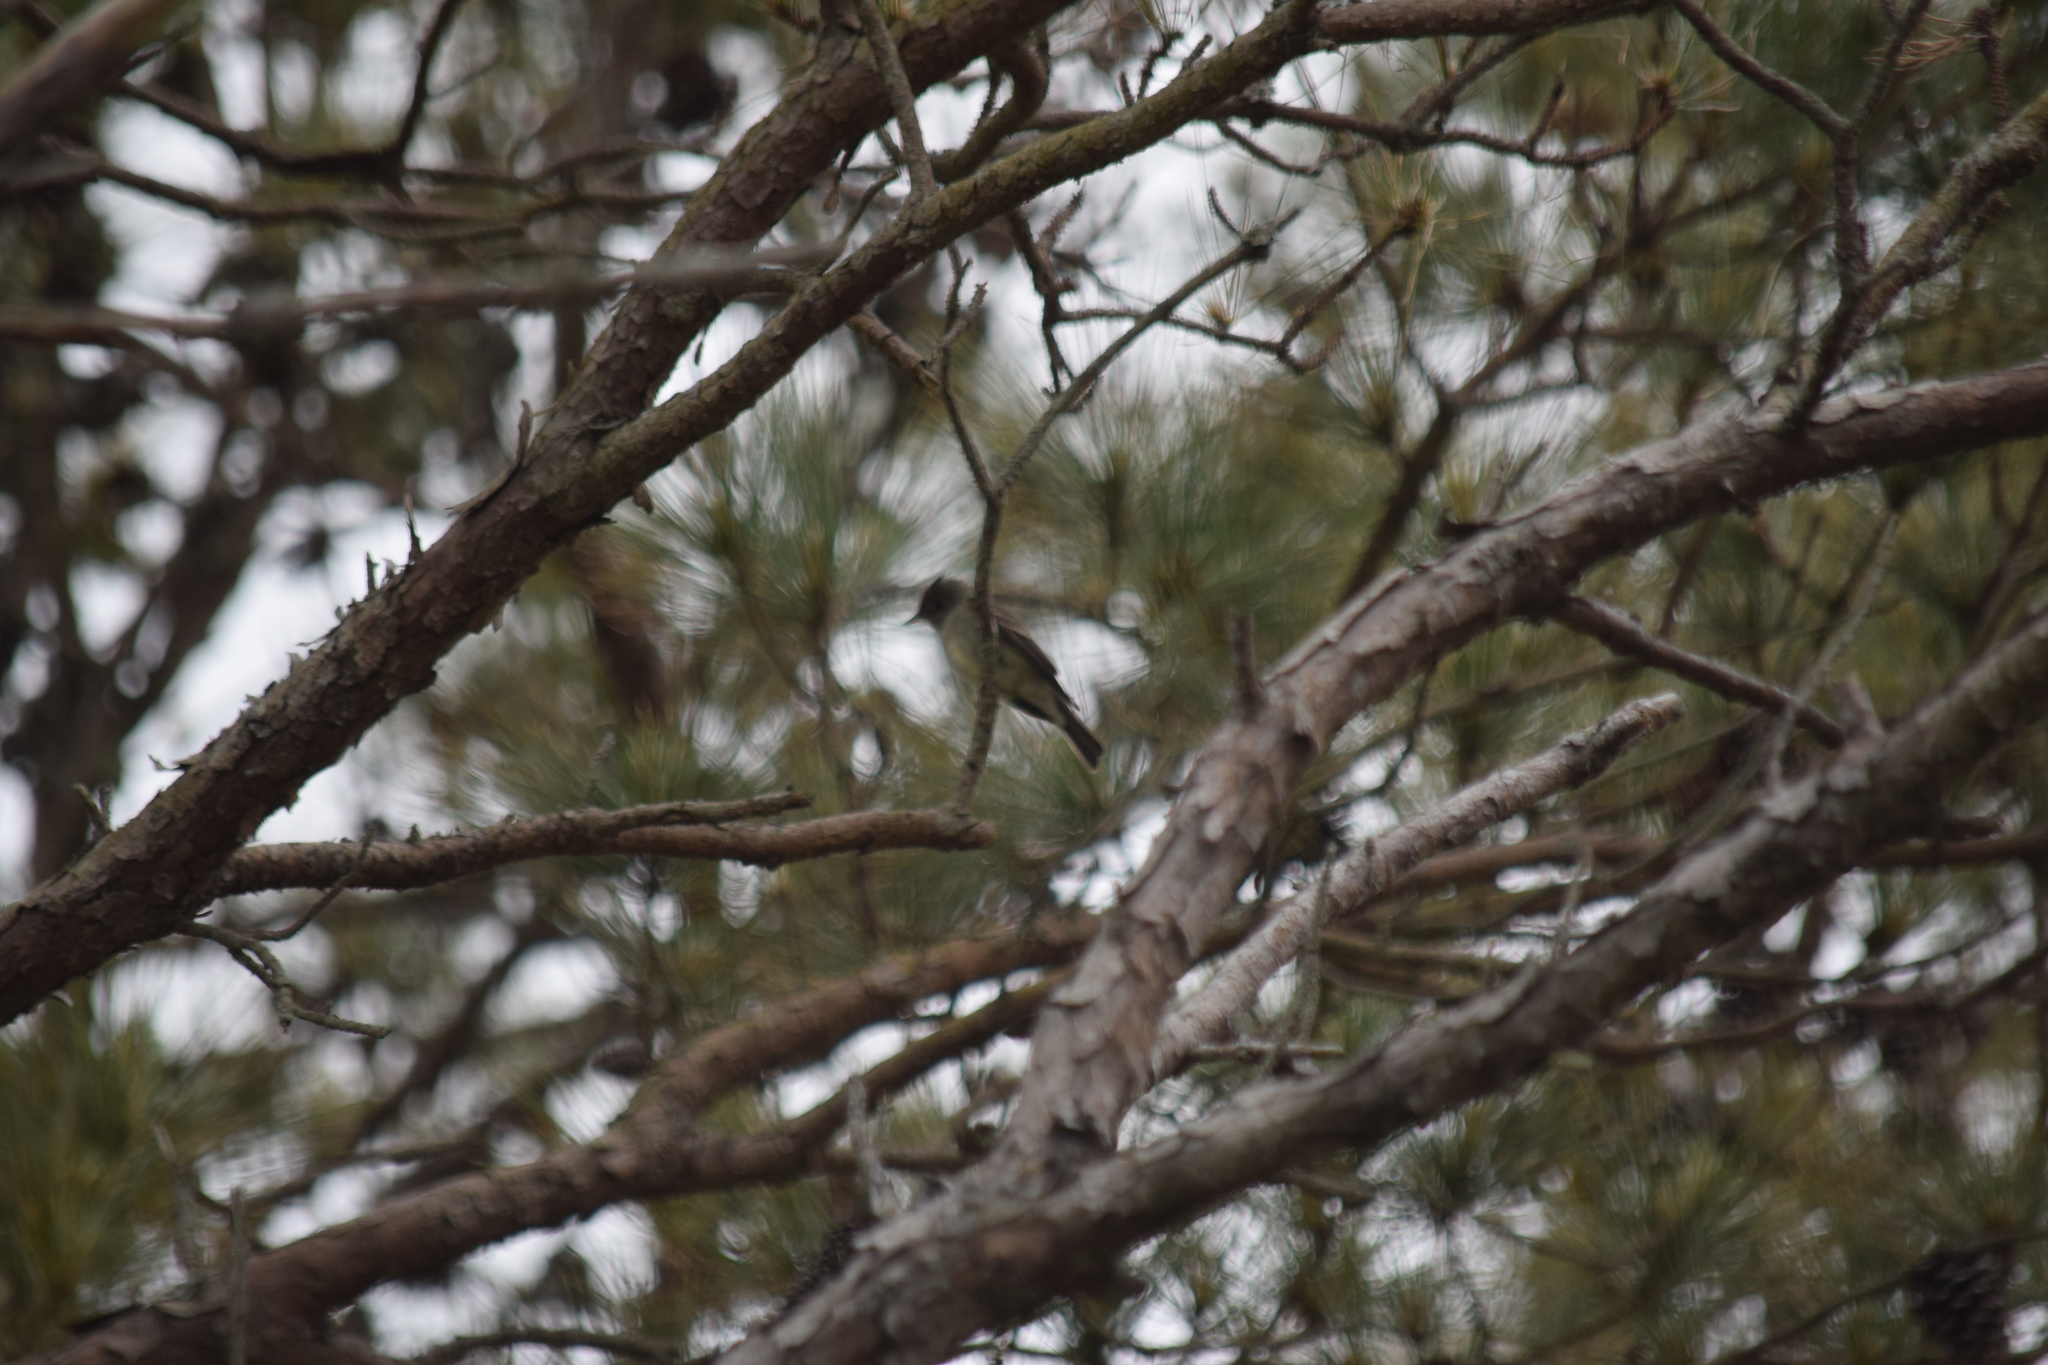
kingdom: Animalia
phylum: Chordata
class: Aves
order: Passeriformes
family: Tyrannidae
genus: Contopus
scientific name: Contopus virens
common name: Eastern wood-pewee
